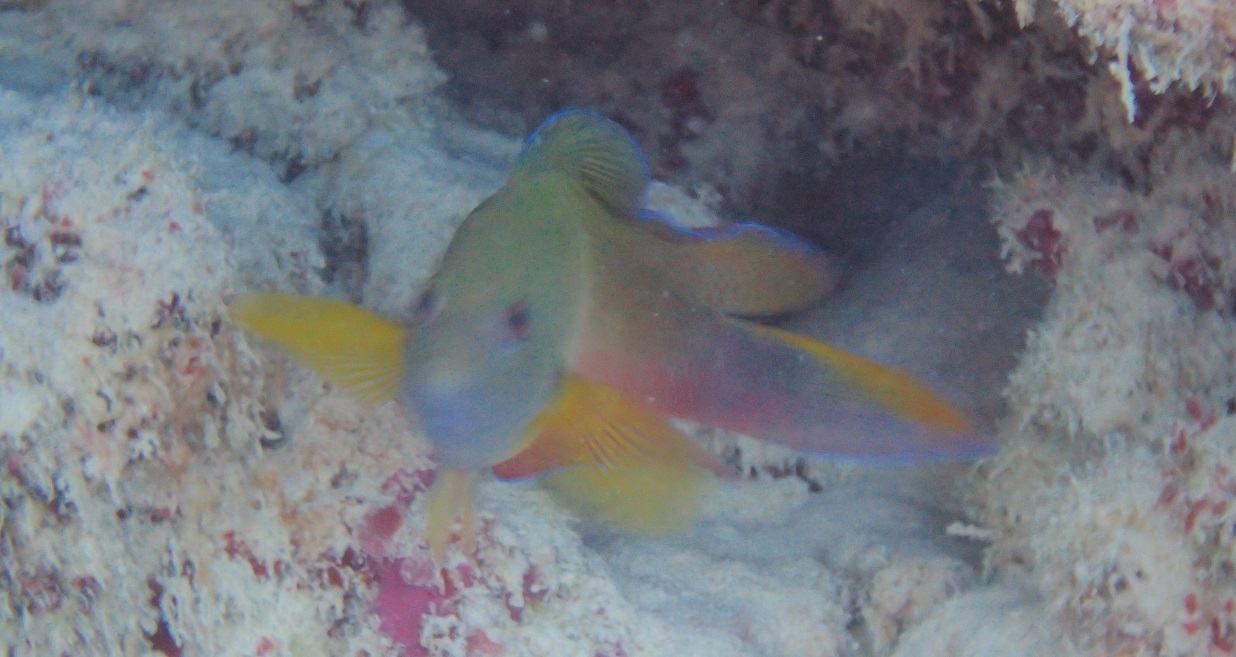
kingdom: Animalia
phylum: Chordata
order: Perciformes
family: Pseudochromidae
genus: Ogilbyina
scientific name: Ogilbyina queenslandiae
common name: Queensland dottyback
